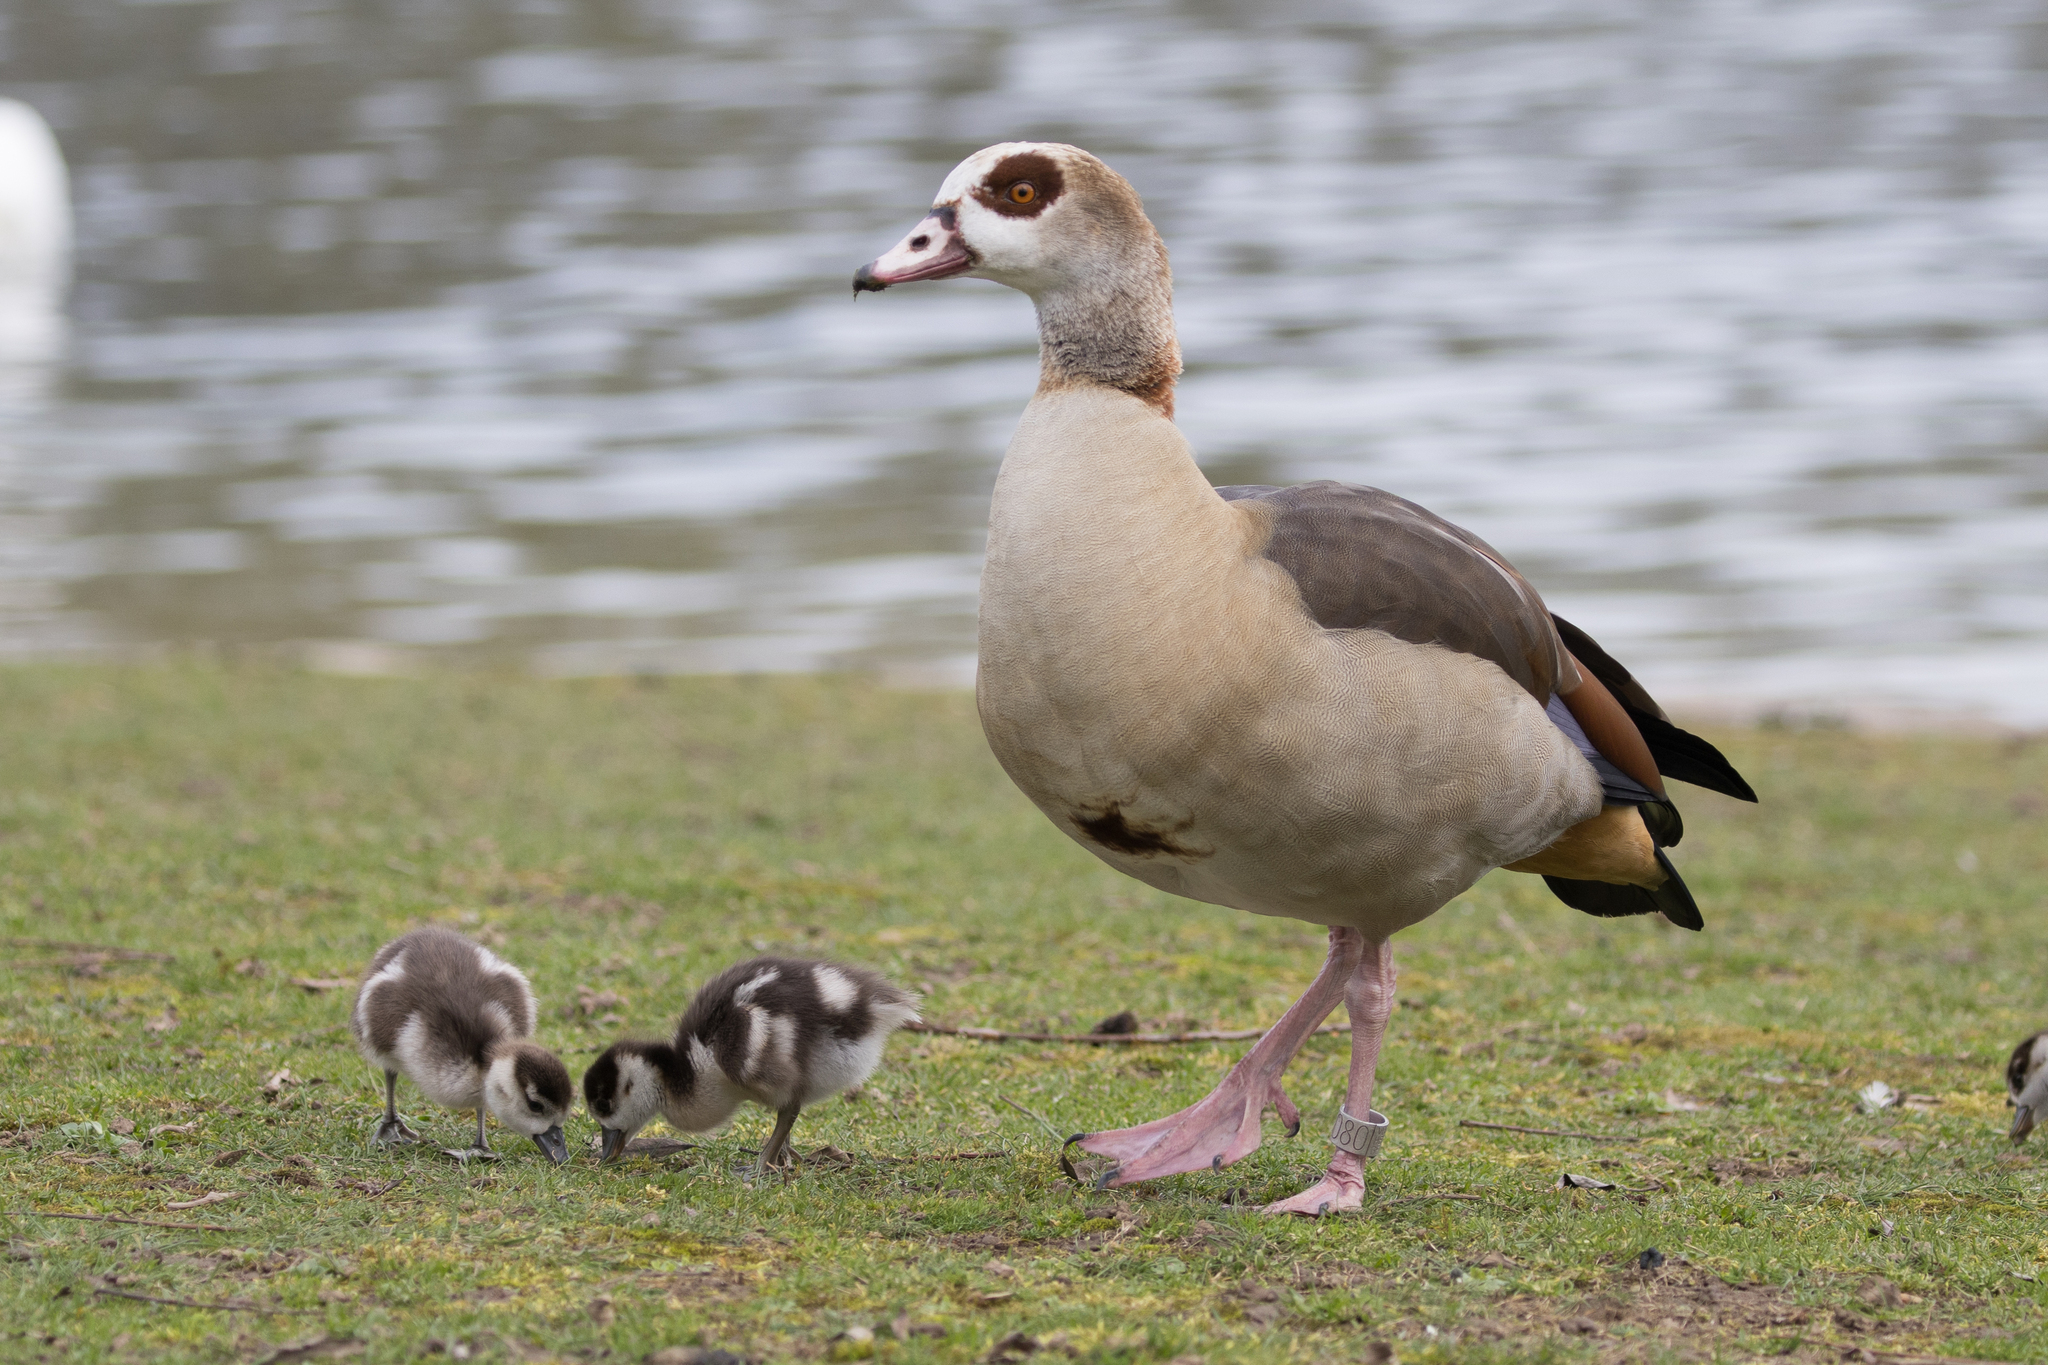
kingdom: Animalia
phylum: Chordata
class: Aves
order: Anseriformes
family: Anatidae
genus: Alopochen
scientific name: Alopochen aegyptiaca
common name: Egyptian goose
